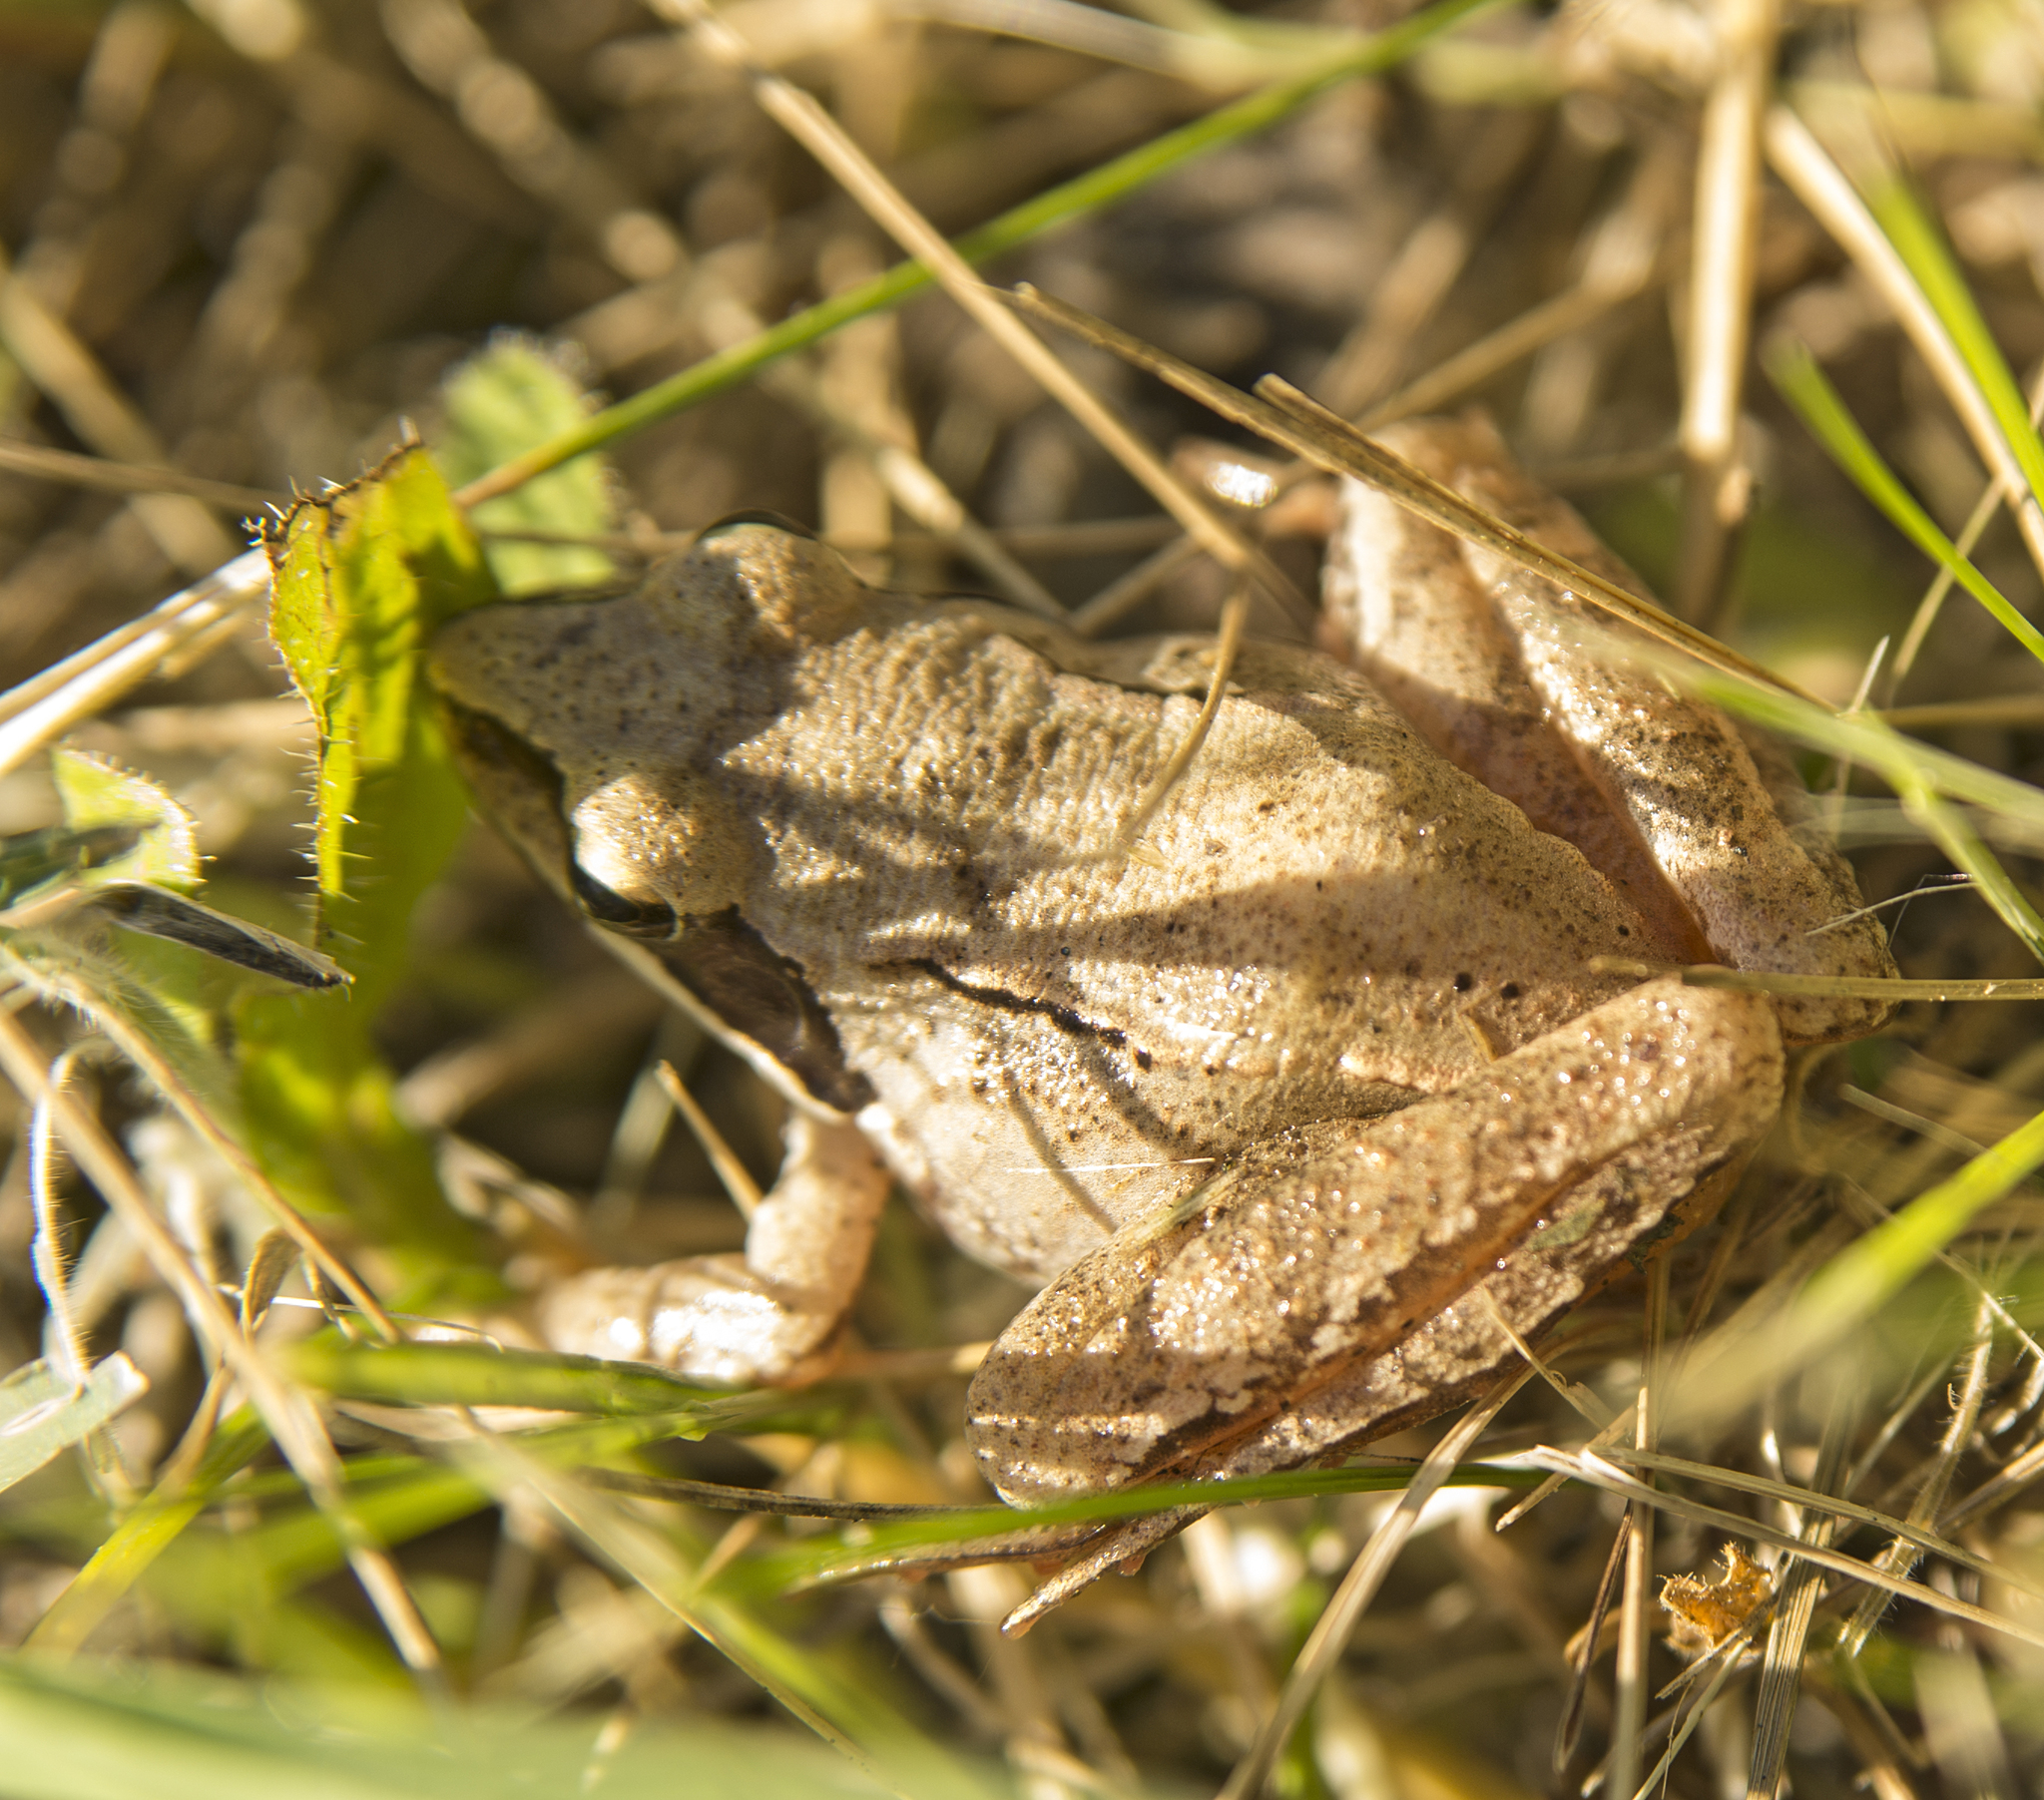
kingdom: Animalia
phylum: Chordata
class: Amphibia
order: Anura
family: Ranidae
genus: Rana
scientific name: Rana dalmatina
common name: Agile frog
